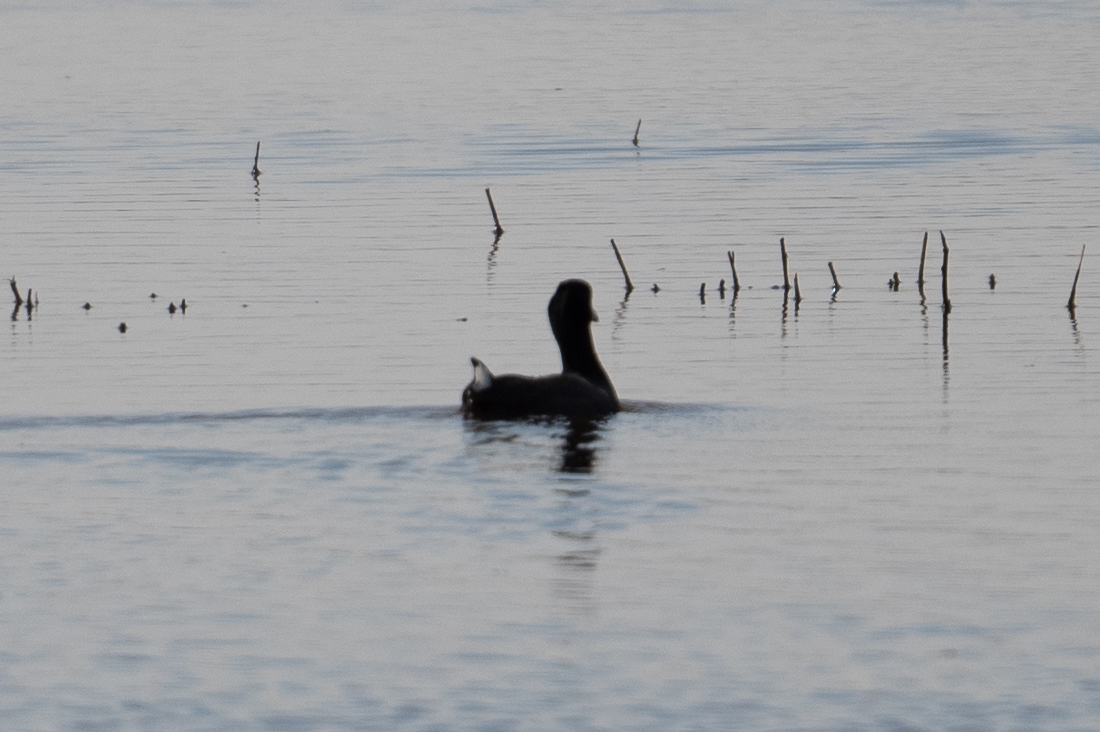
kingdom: Animalia
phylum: Chordata
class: Aves
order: Gruiformes
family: Rallidae
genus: Fulica
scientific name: Fulica americana
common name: American coot
